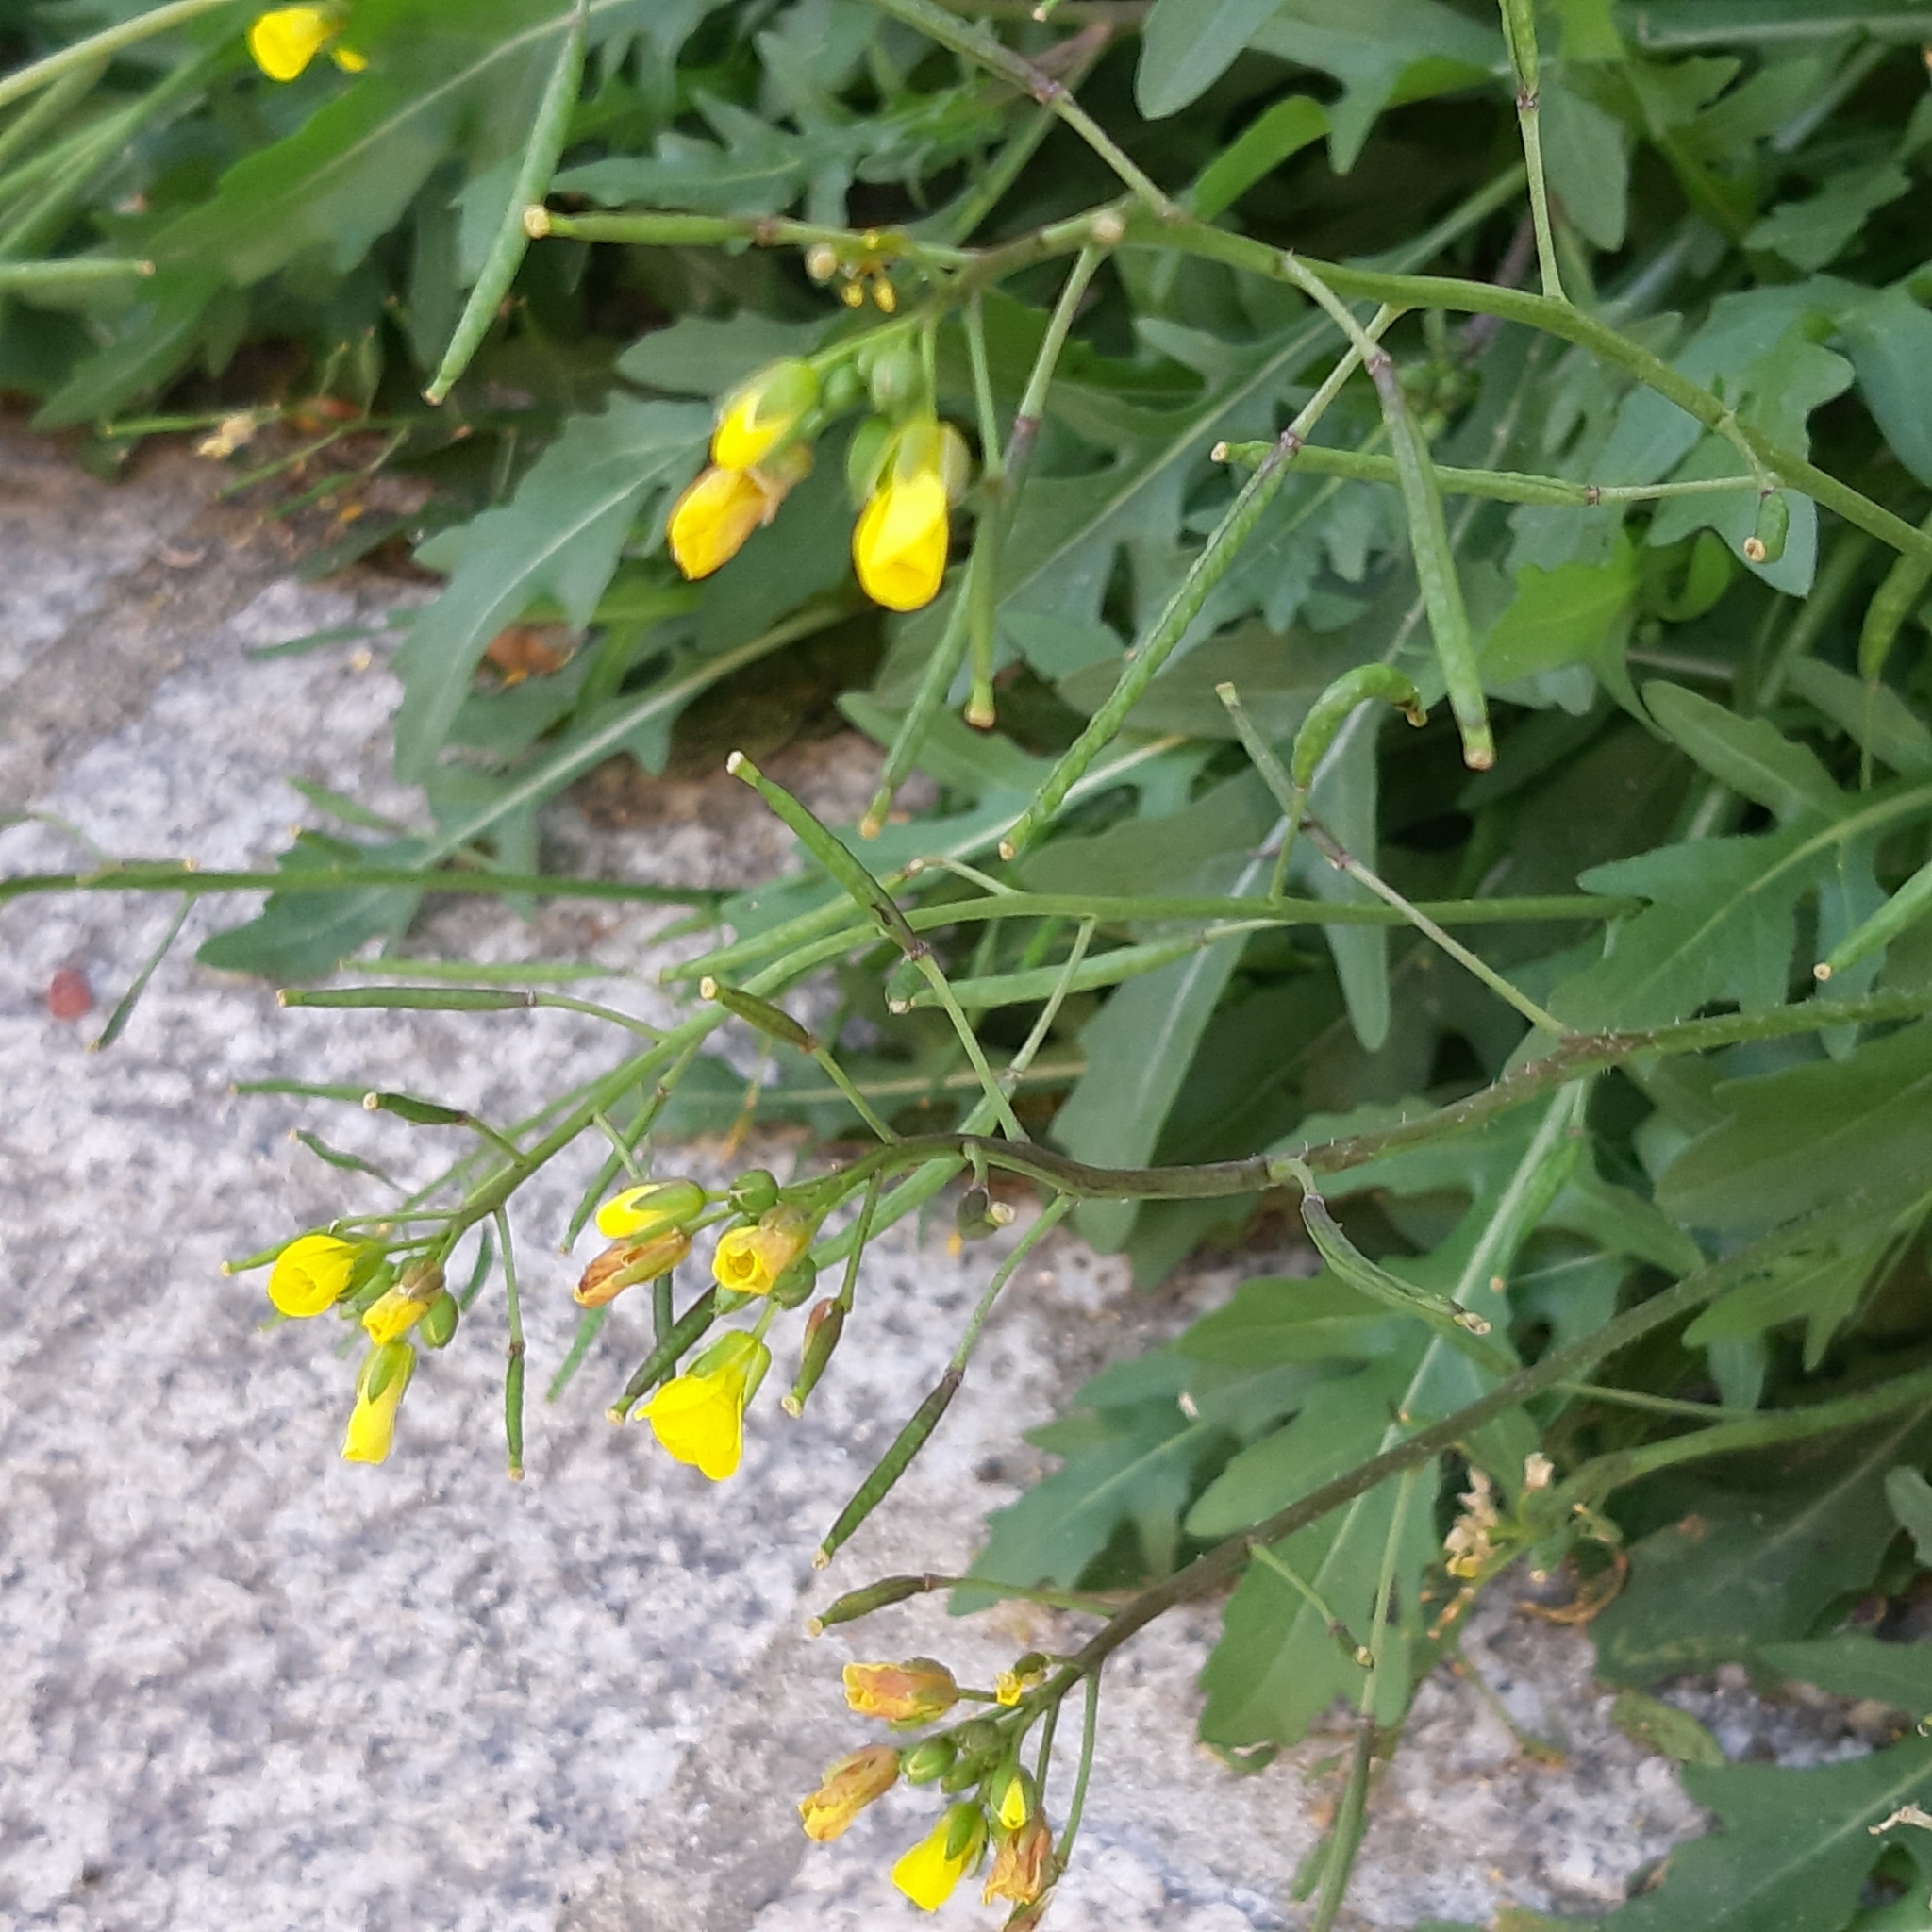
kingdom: Plantae
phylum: Tracheophyta
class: Magnoliopsida
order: Brassicales
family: Brassicaceae
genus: Diplotaxis
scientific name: Diplotaxis tenuifolia
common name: Perennial wall-rocket
